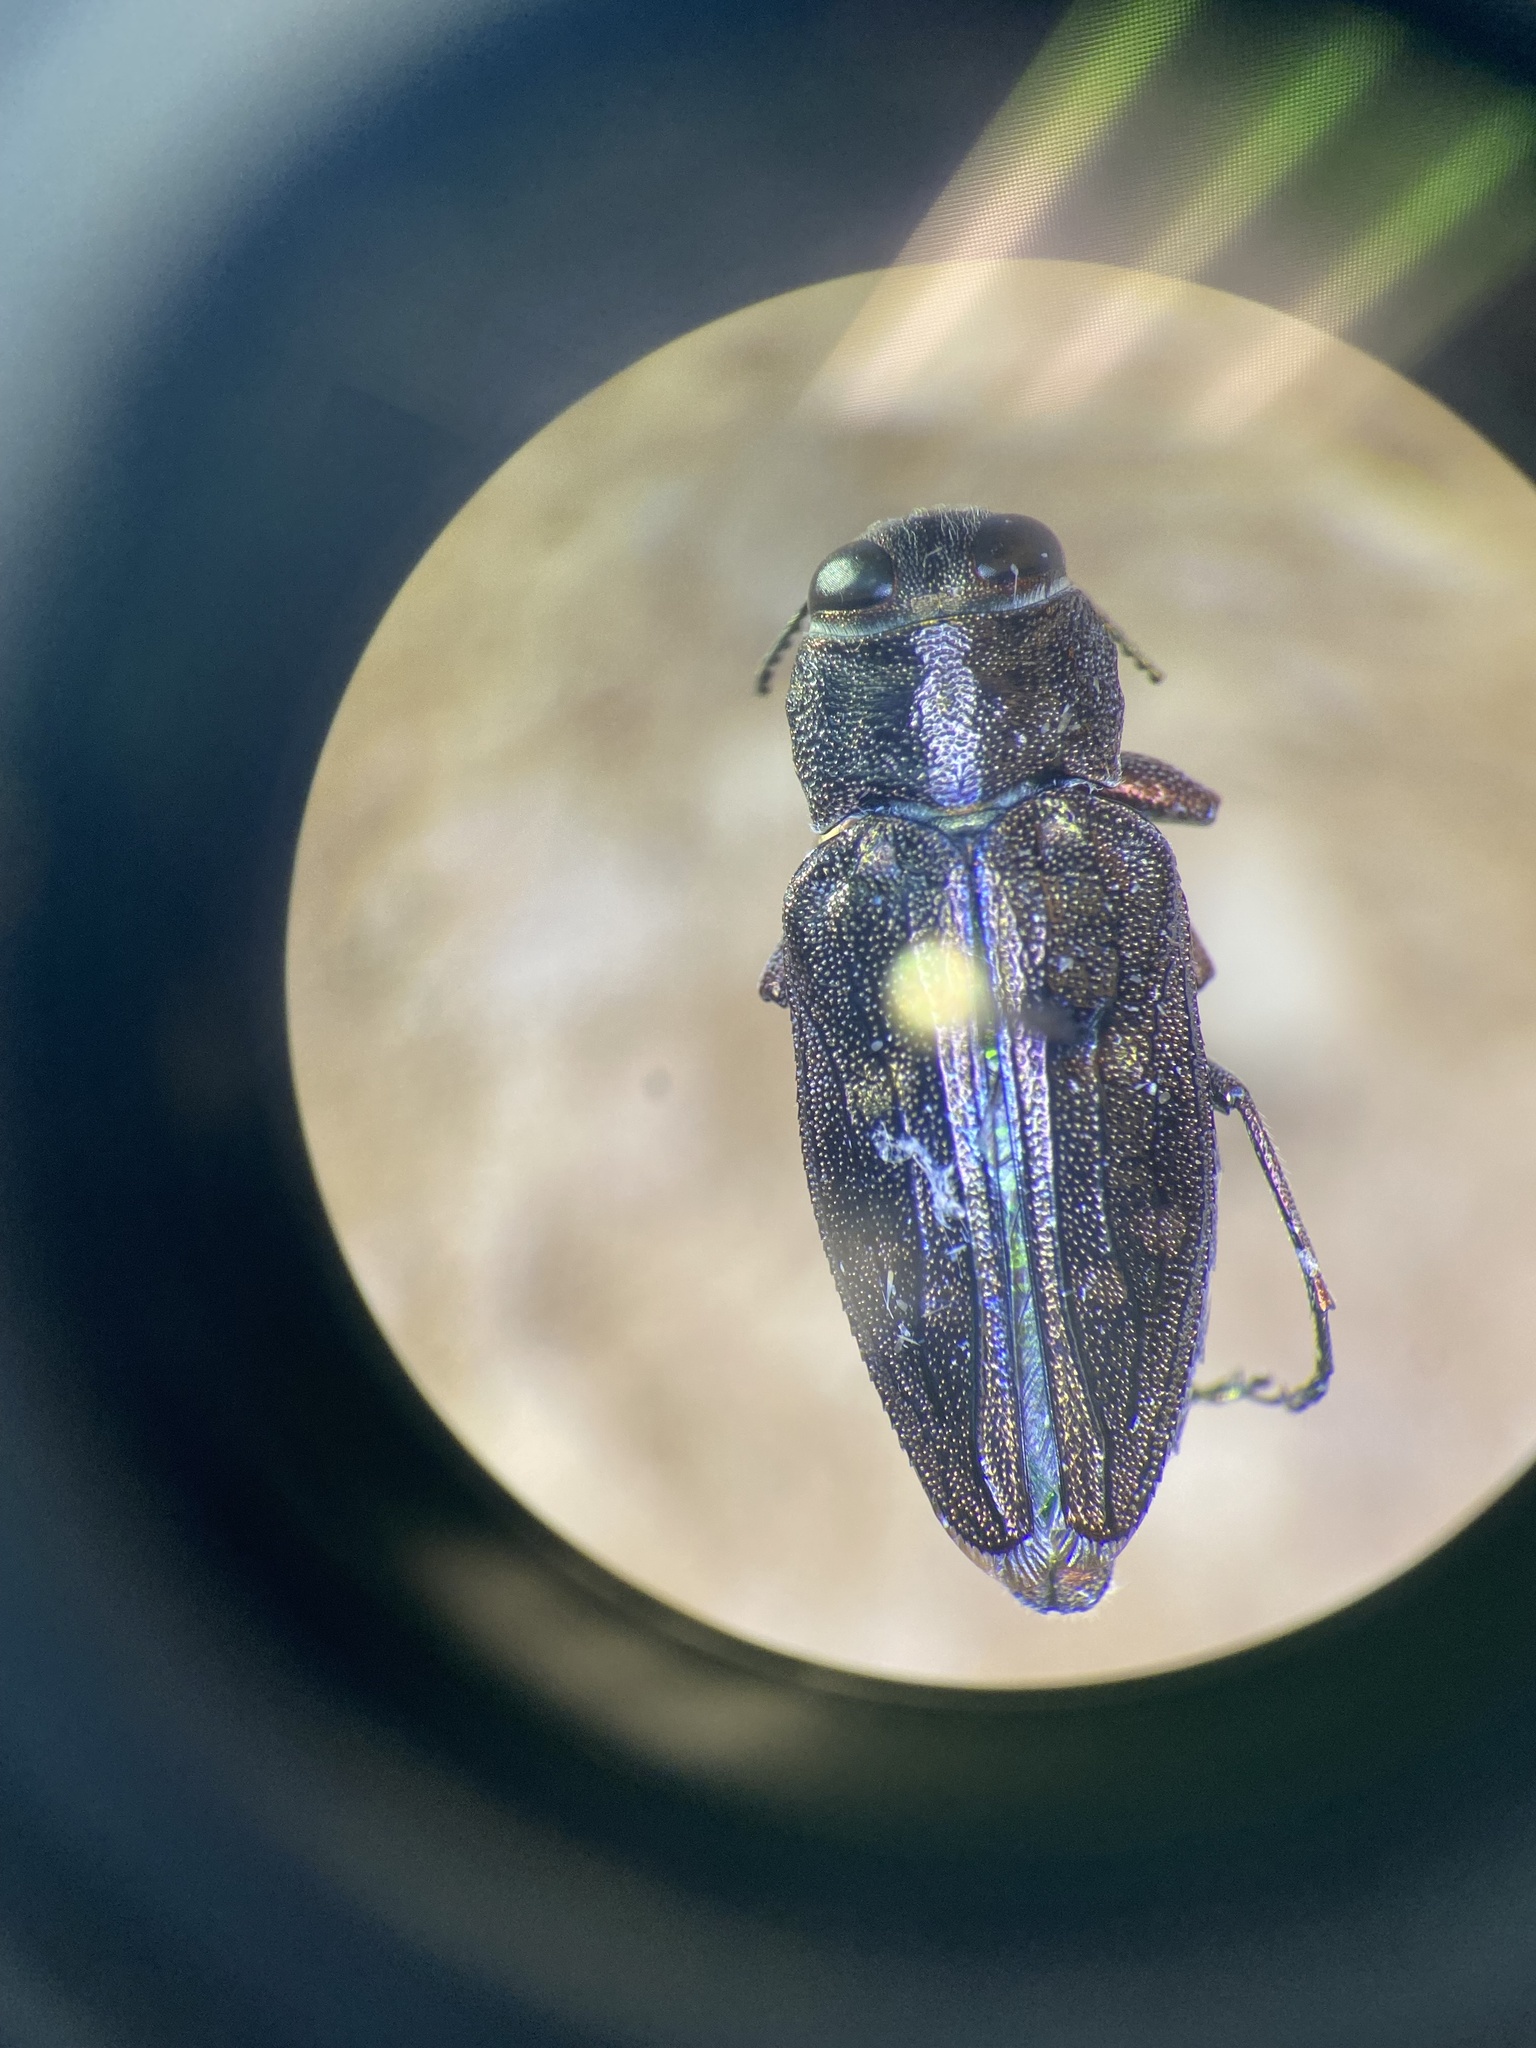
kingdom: Animalia
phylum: Arthropoda
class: Insecta
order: Coleoptera
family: Buprestidae
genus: Chrysobothris
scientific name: Chrysobothris viridiceps
